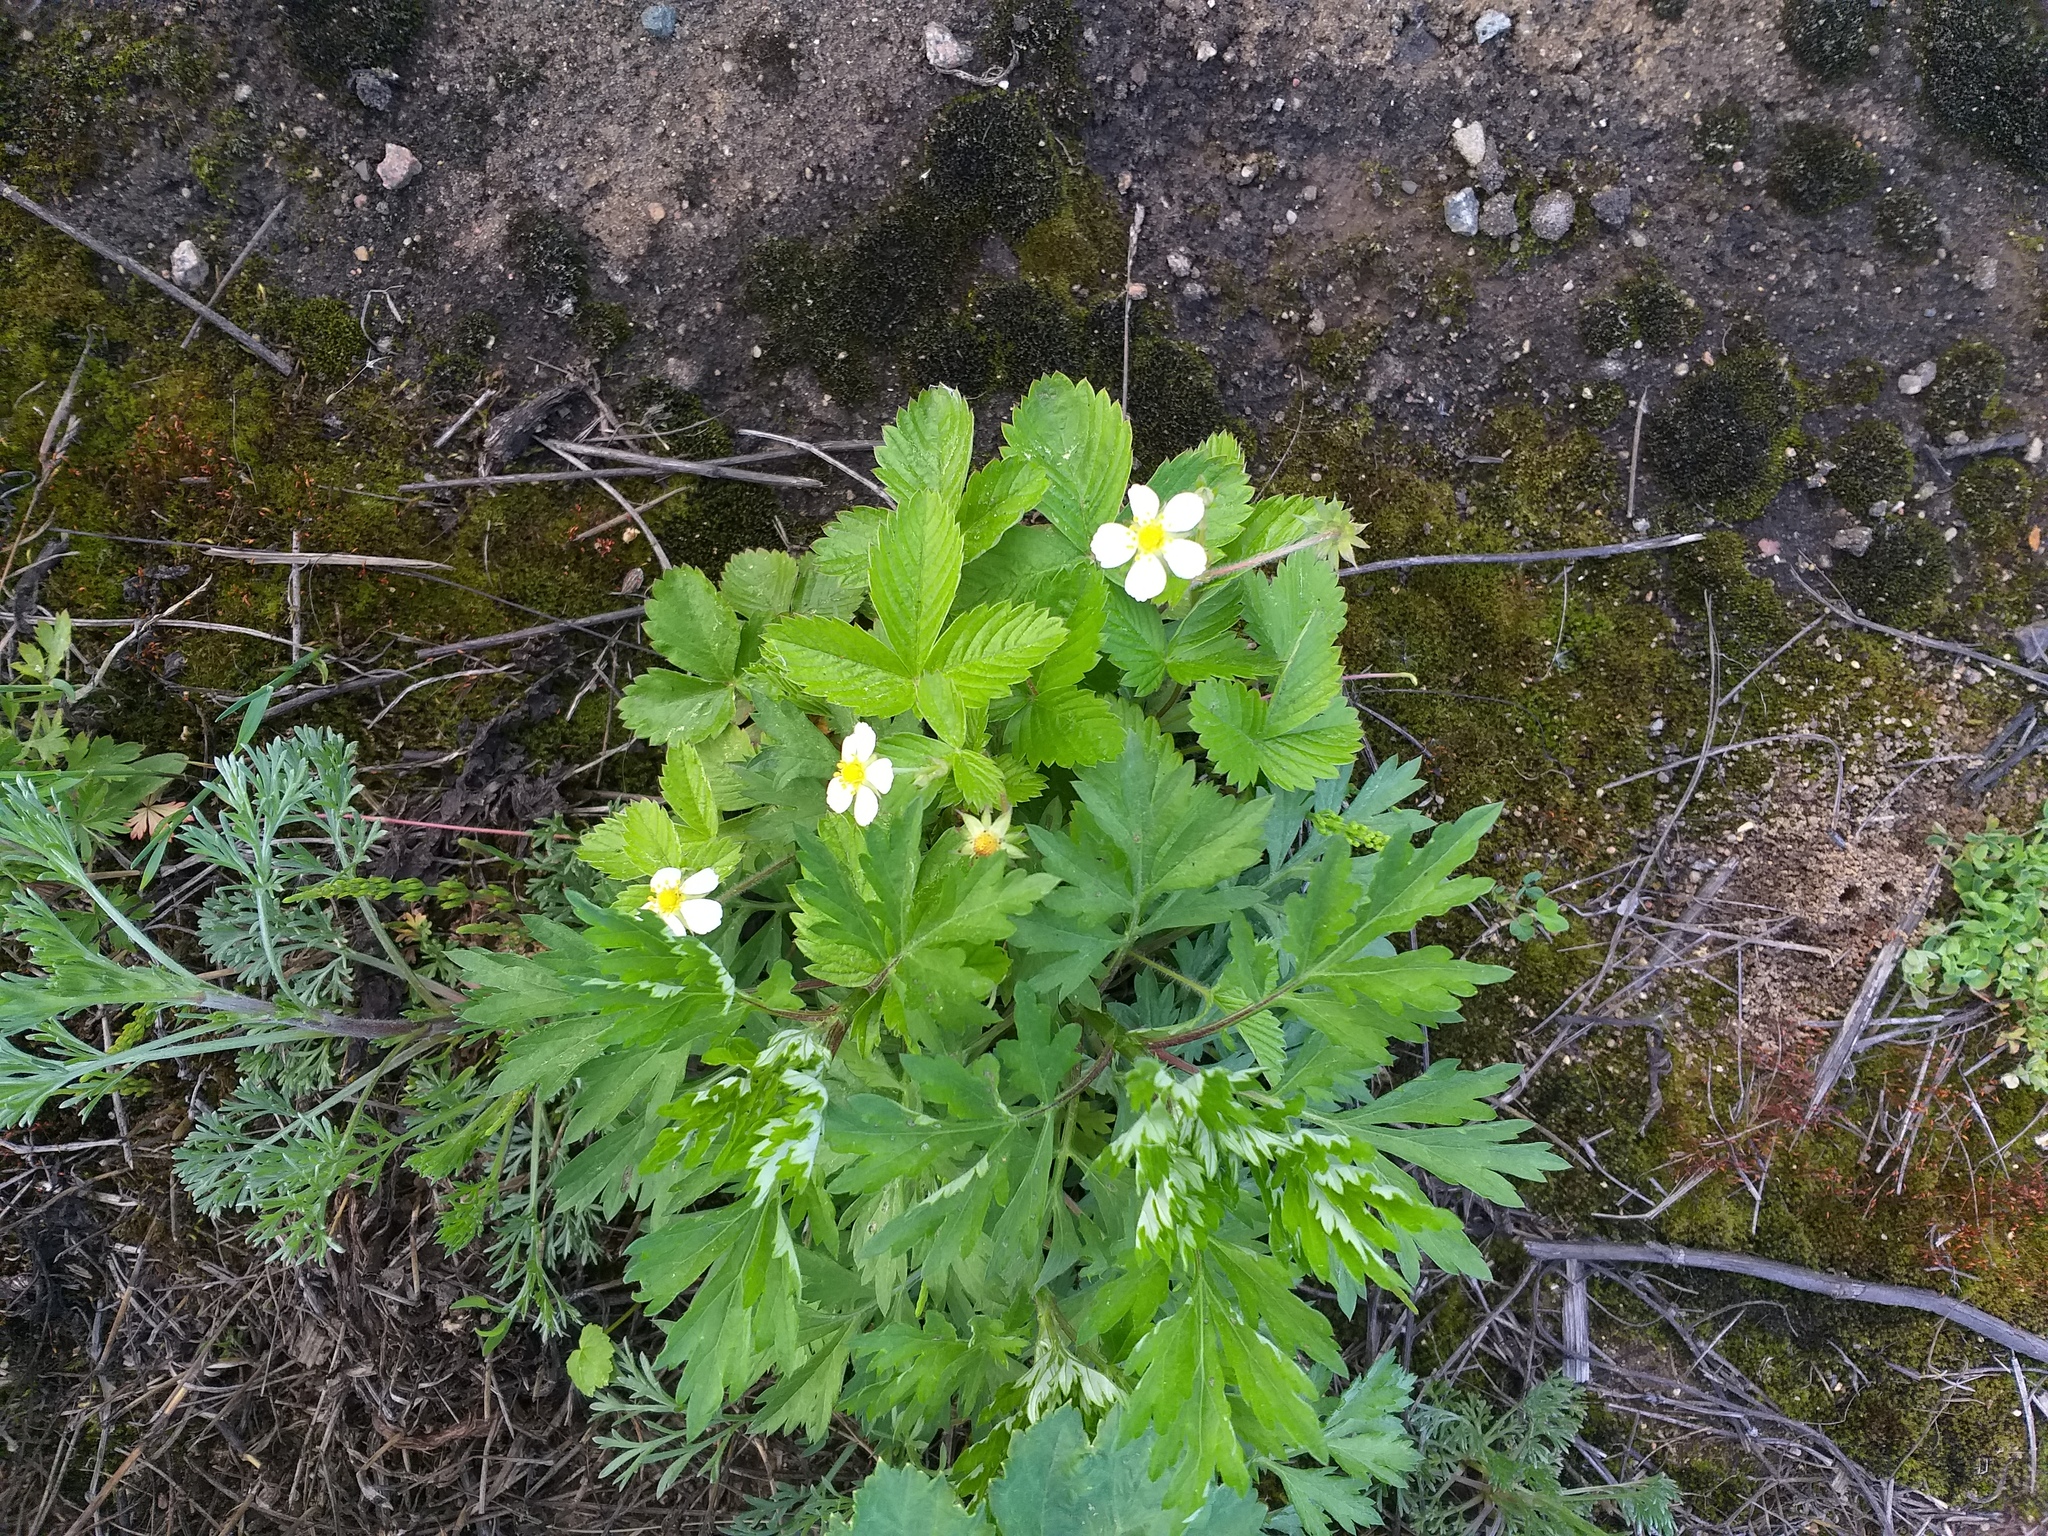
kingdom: Plantae
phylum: Tracheophyta
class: Magnoliopsida
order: Rosales
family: Rosaceae
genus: Fragaria
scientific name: Fragaria vesca
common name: Wild strawberry
